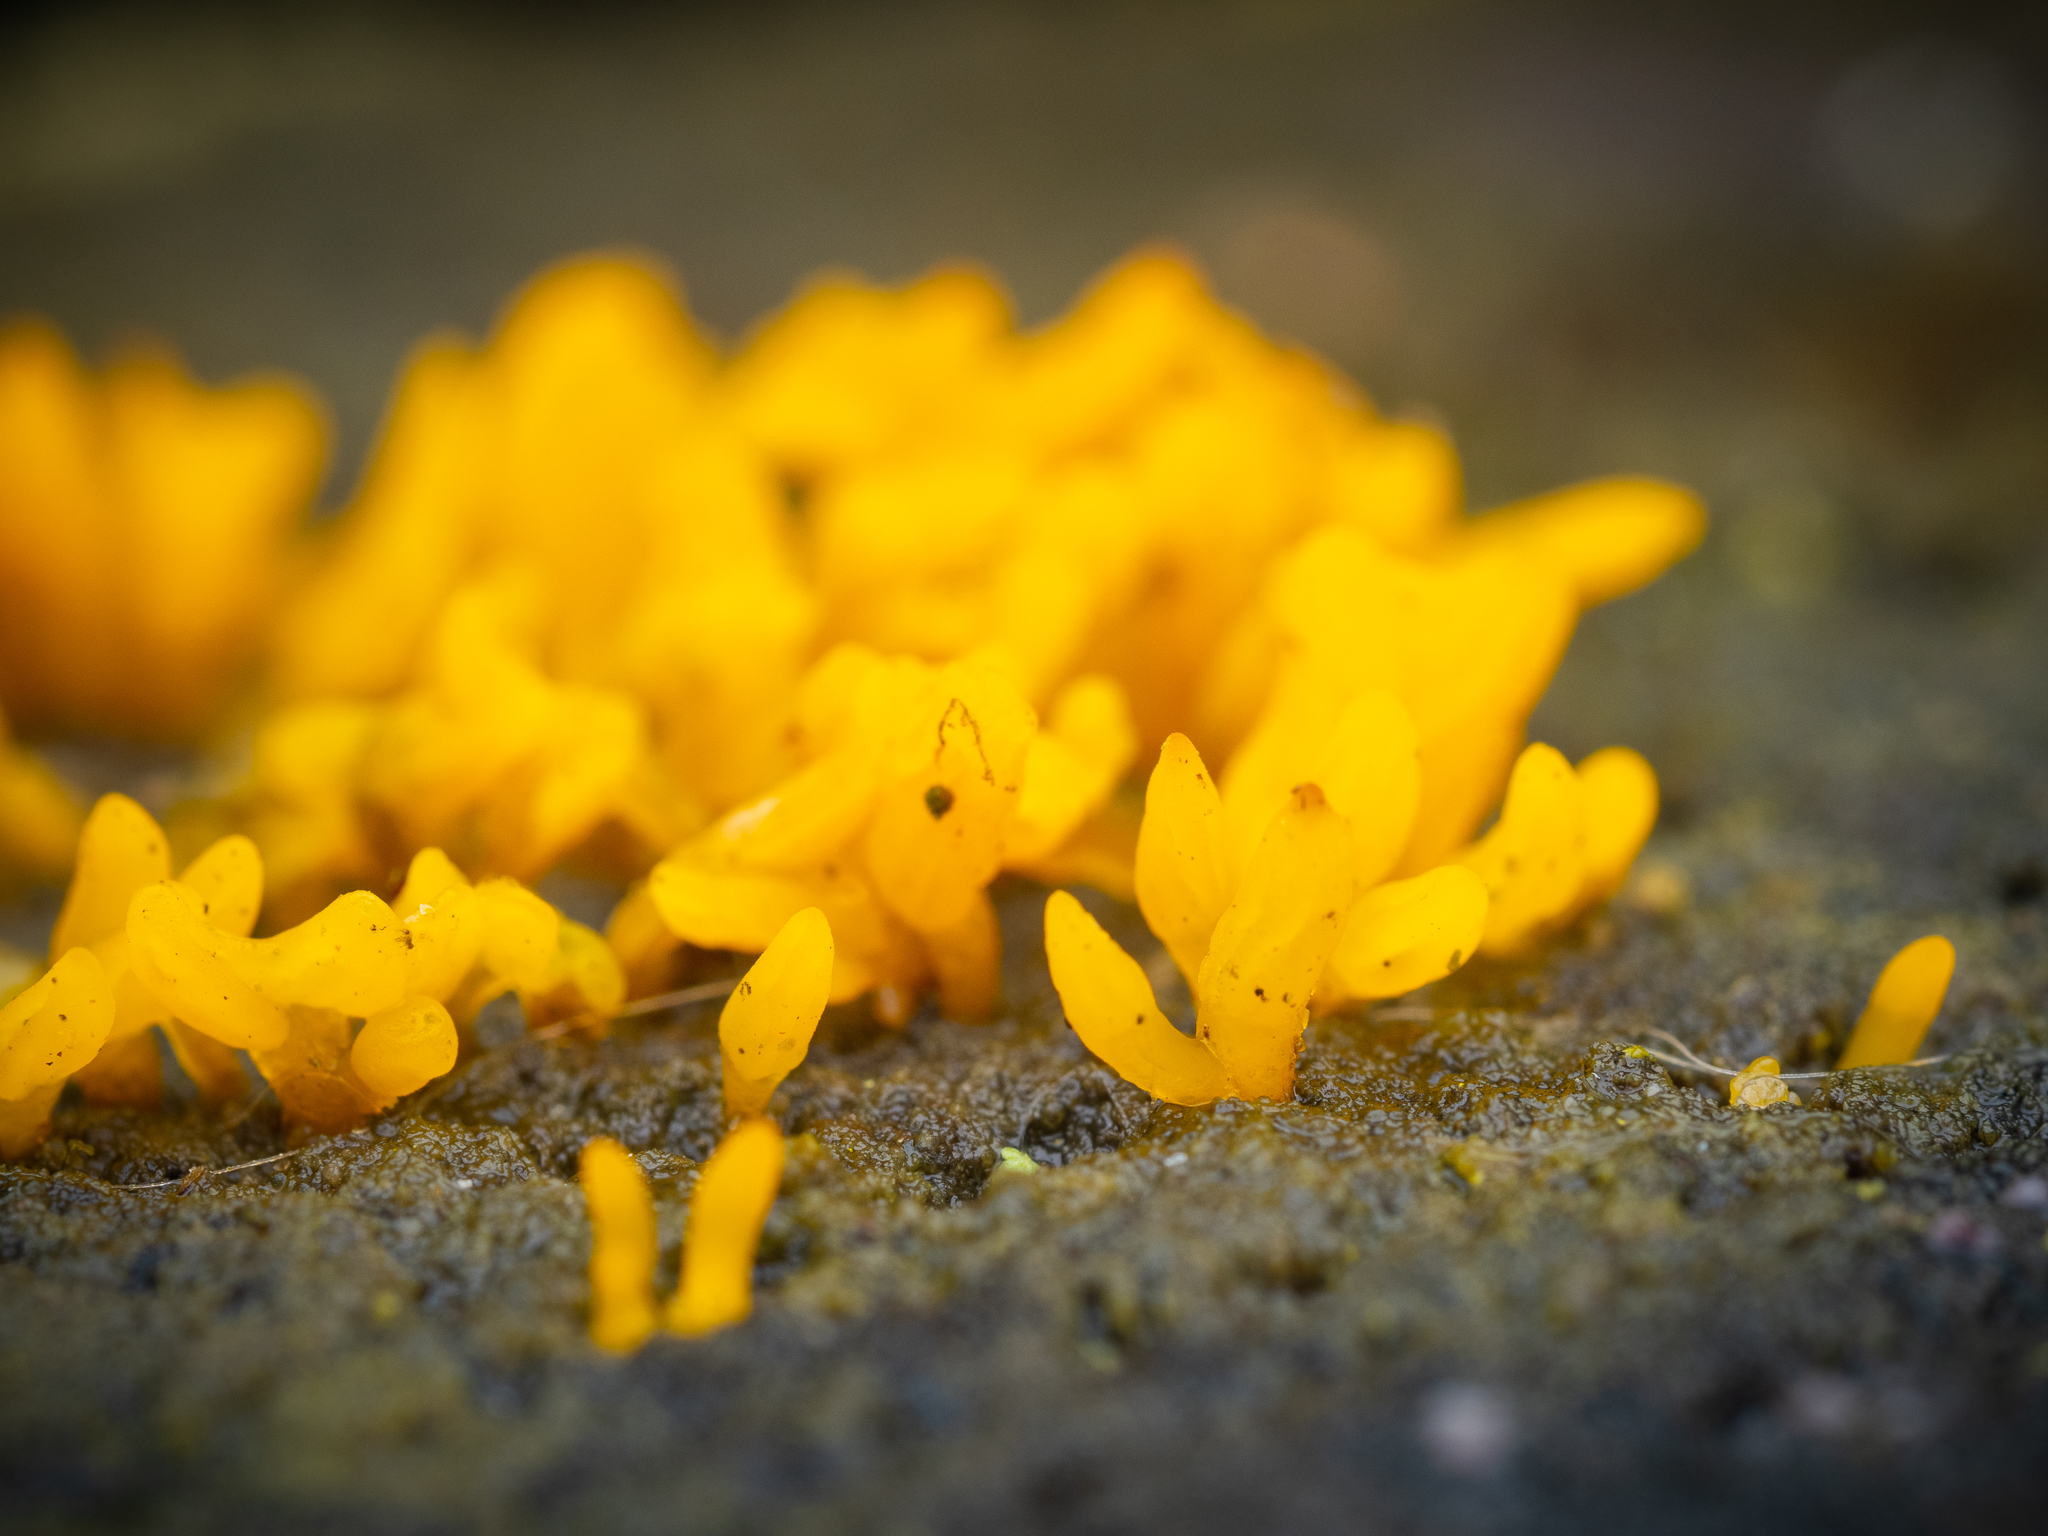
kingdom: Fungi
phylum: Basidiomycota
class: Dacrymycetes
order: Dacrymycetales
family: Dacrymycetaceae
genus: Calocera
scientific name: Calocera cornea
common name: Small stagshorn
